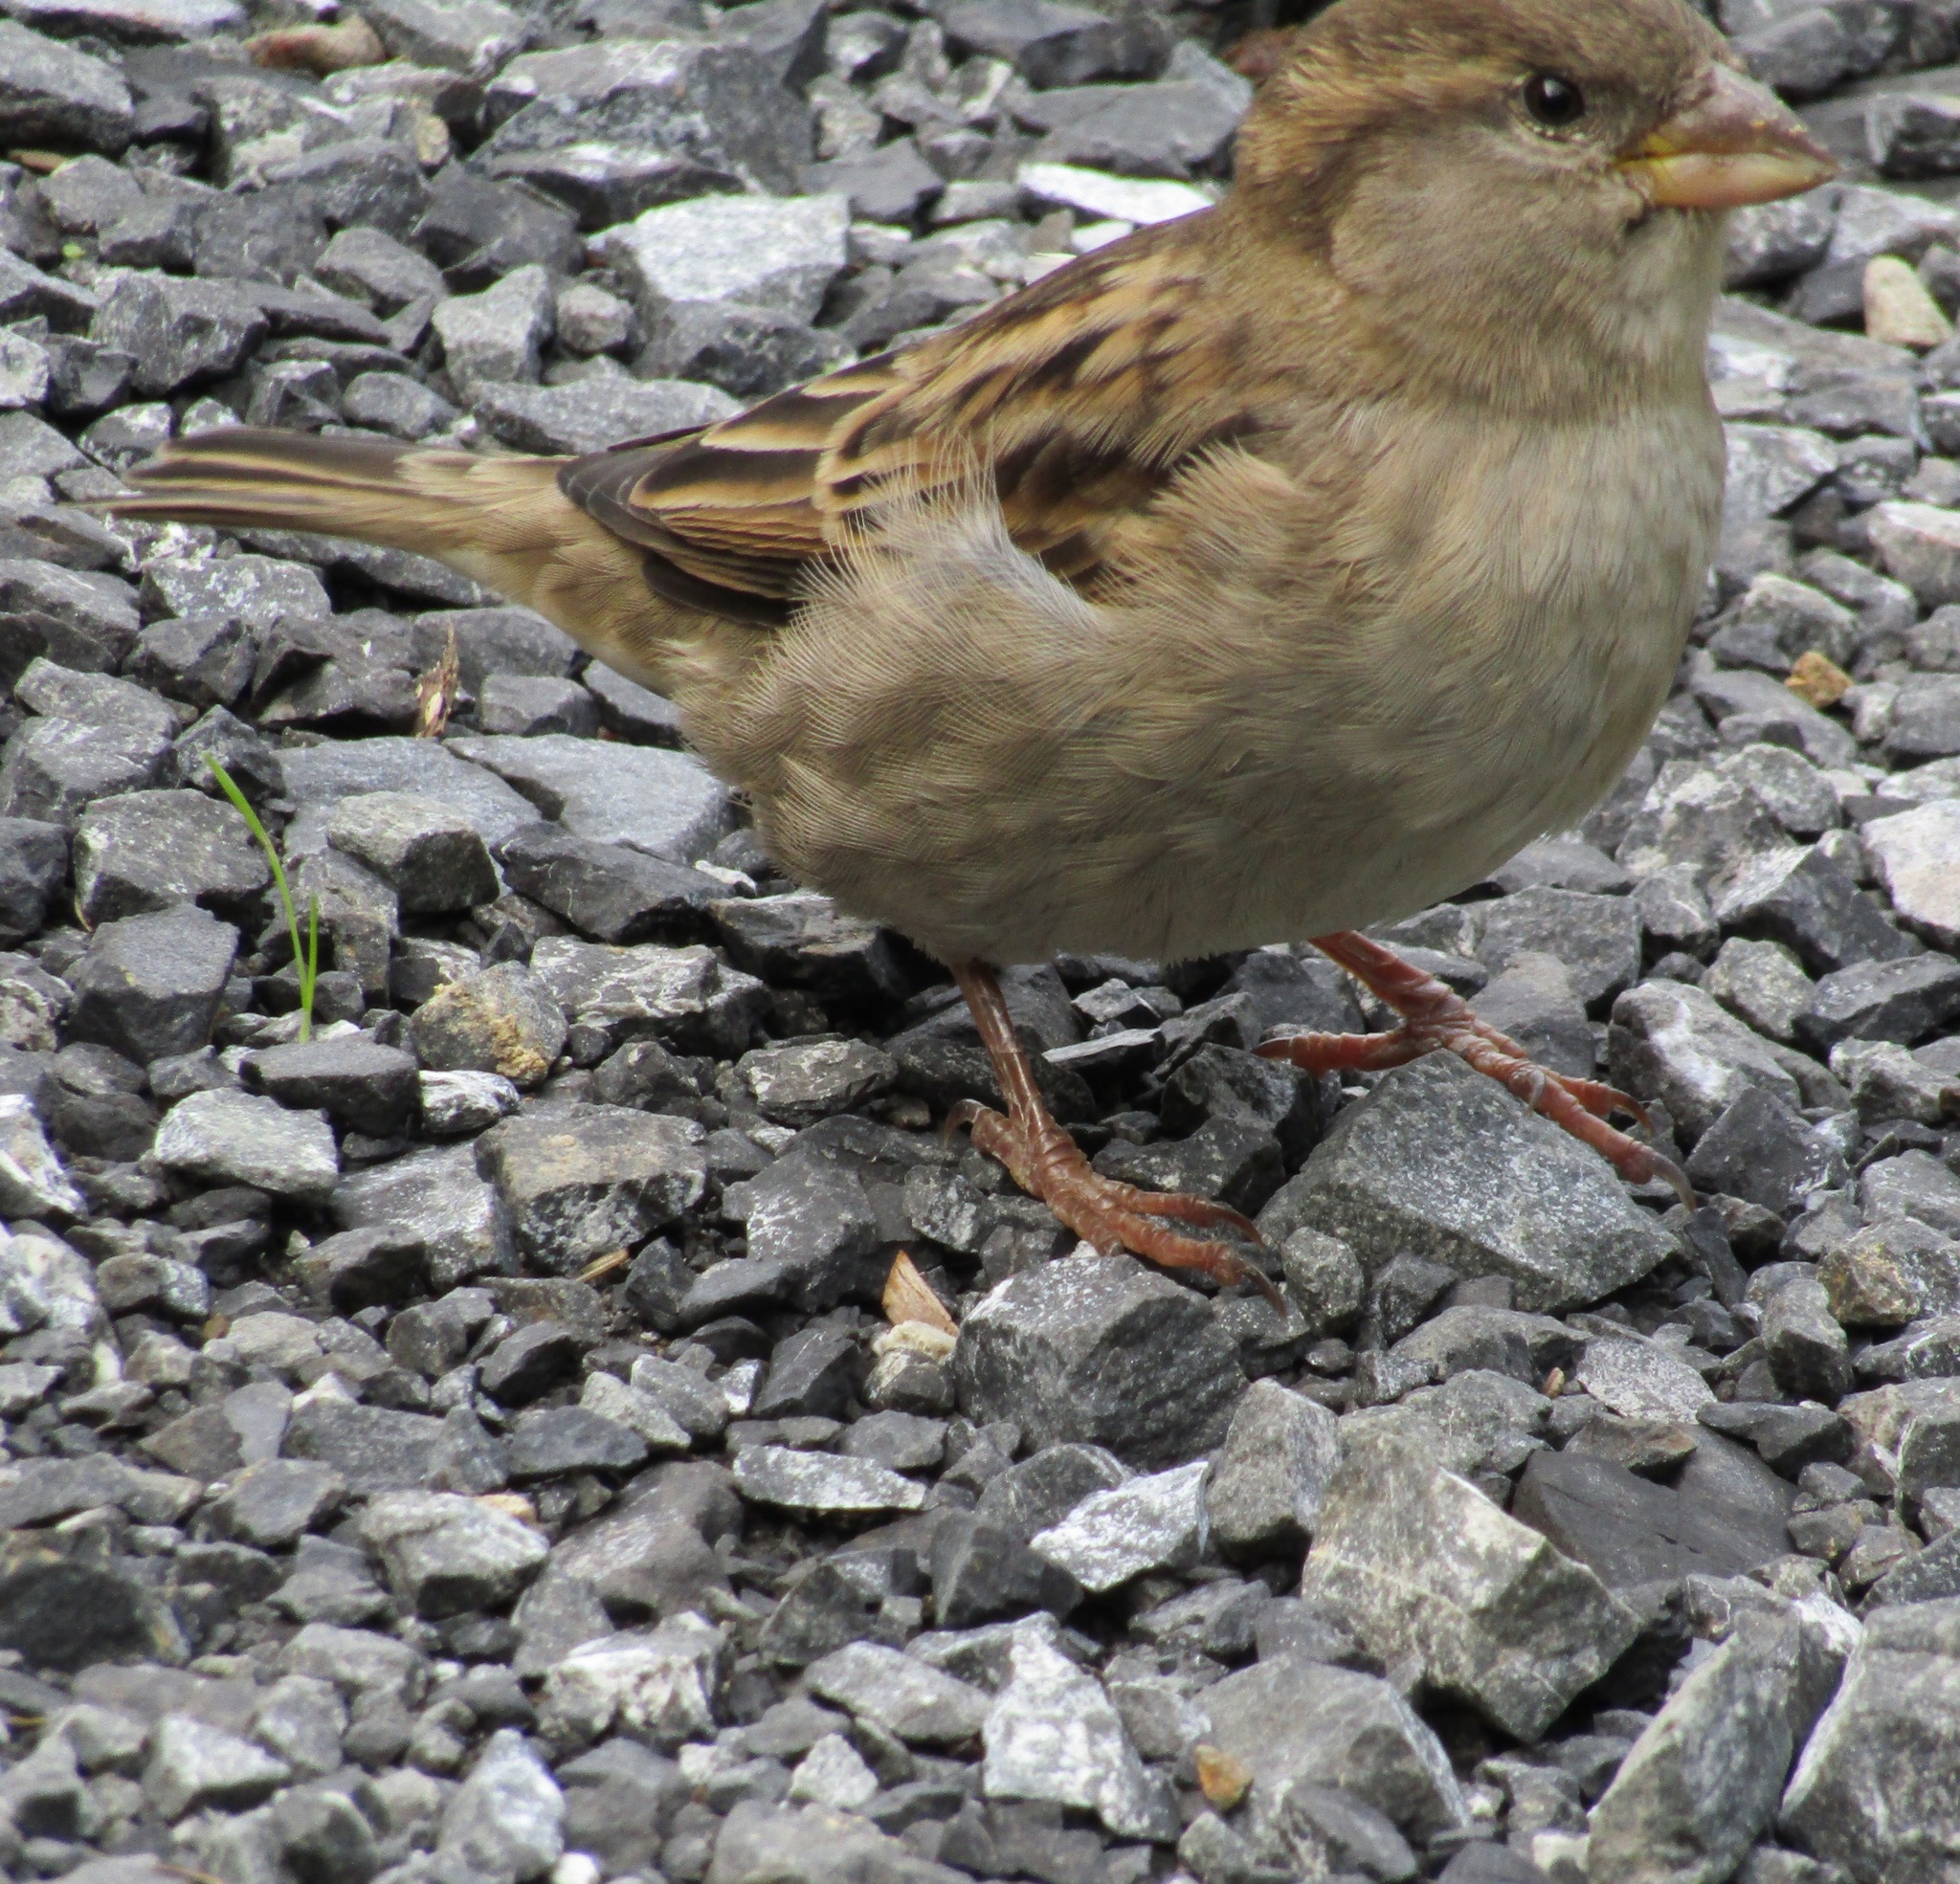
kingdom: Animalia
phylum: Chordata
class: Aves
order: Passeriformes
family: Passeridae
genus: Passer
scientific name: Passer domesticus
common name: House sparrow
